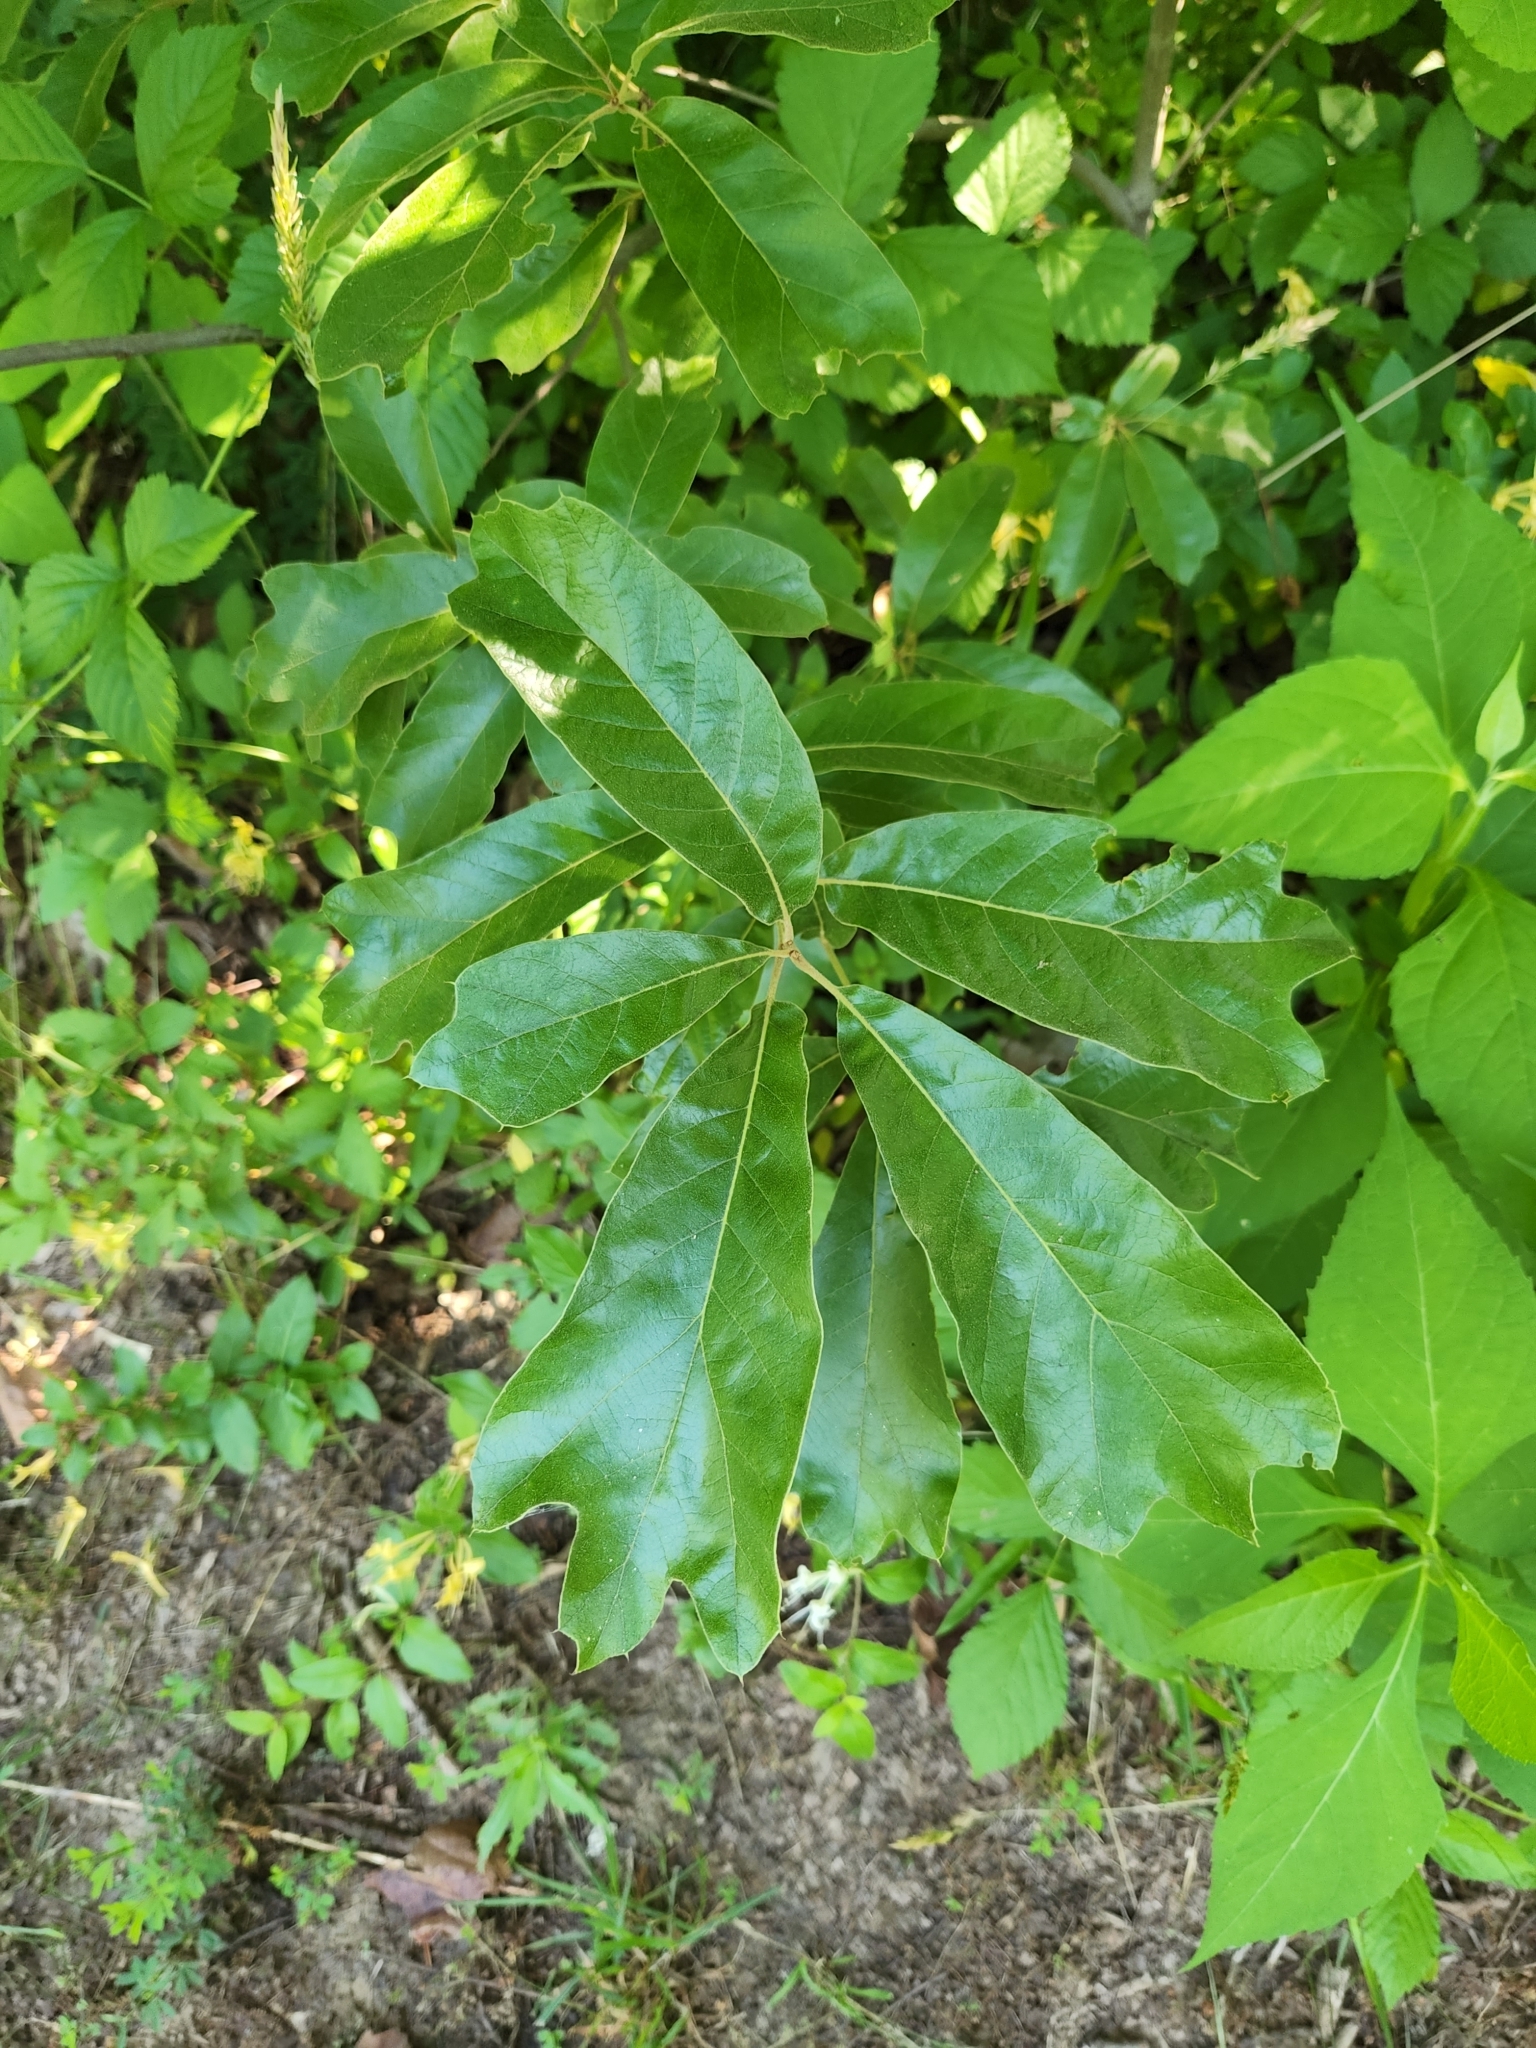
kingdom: Plantae
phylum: Tracheophyta
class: Magnoliopsida
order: Fagales
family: Fagaceae
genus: Quercus
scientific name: Quercus falcata
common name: Southern red oak
